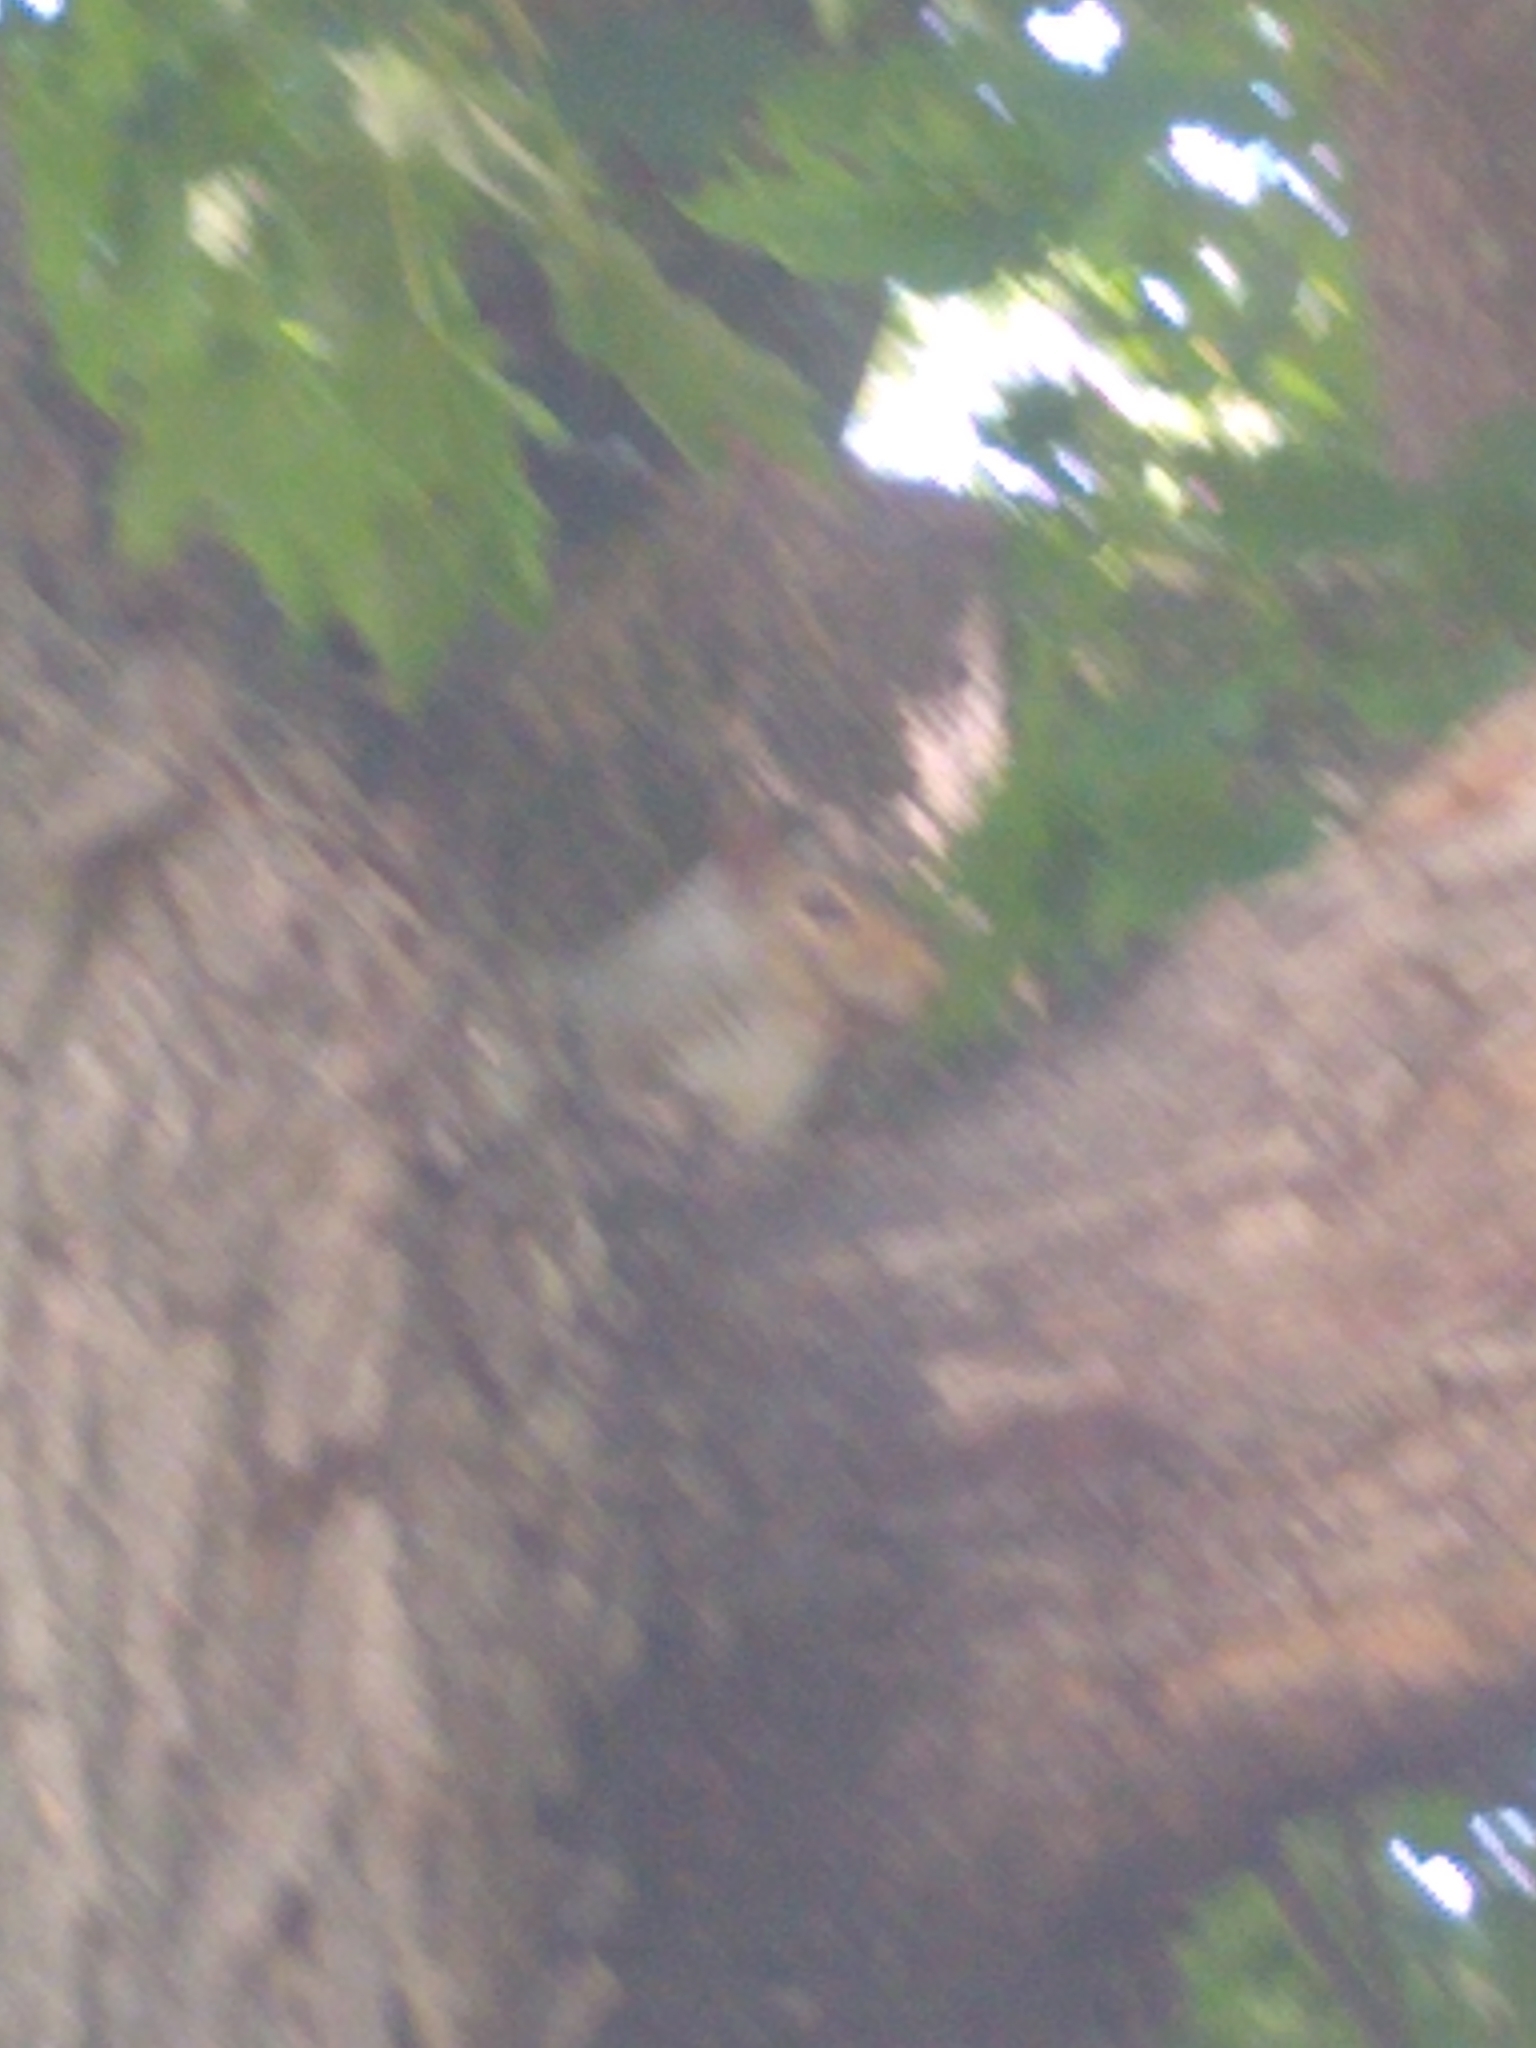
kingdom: Animalia
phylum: Chordata
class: Mammalia
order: Rodentia
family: Sciuridae
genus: Sciurus
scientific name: Sciurus carolinensis
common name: Eastern gray squirrel
